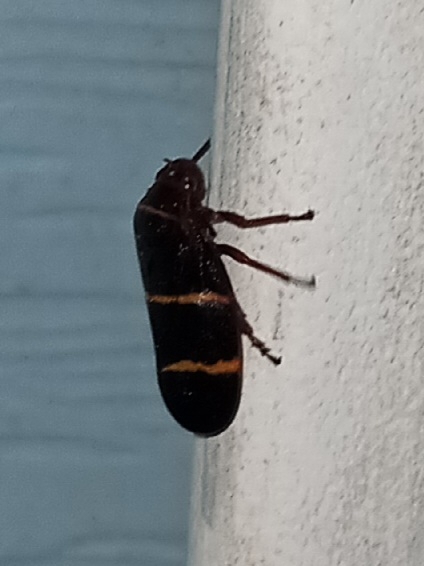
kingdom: Animalia
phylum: Arthropoda
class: Insecta
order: Hemiptera
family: Cercopidae
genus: Prosapia
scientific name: Prosapia bicincta
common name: Twolined spittlebug
